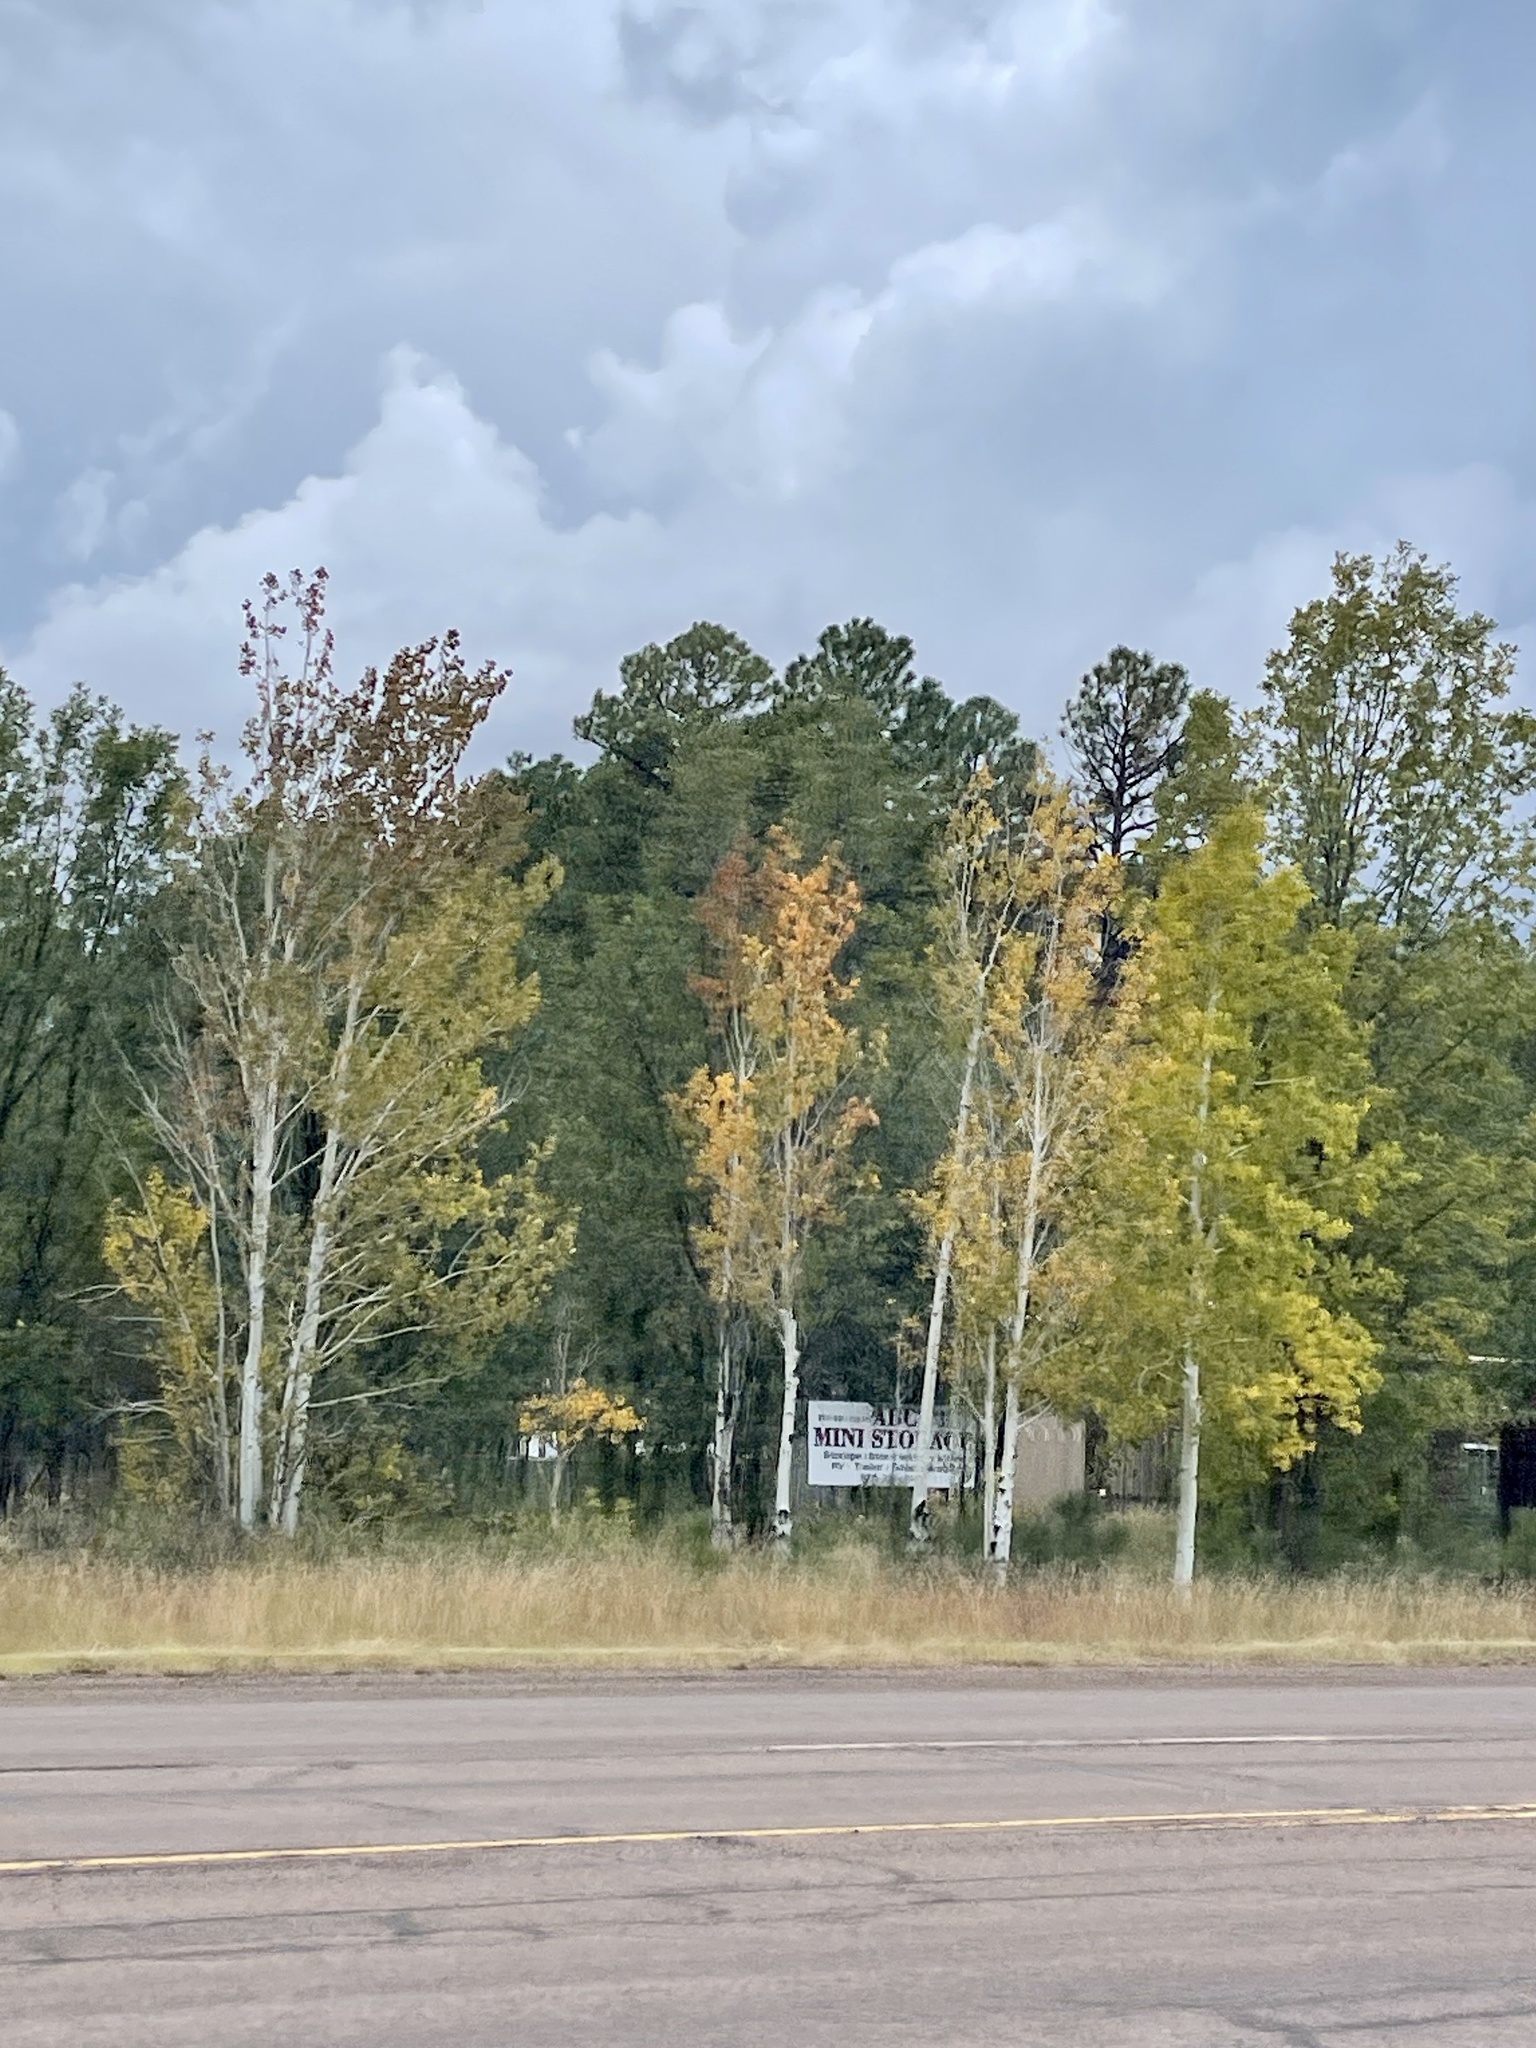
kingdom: Plantae
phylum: Tracheophyta
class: Magnoliopsida
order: Malpighiales
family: Salicaceae
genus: Populus
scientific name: Populus tremuloides
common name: Quaking aspen
